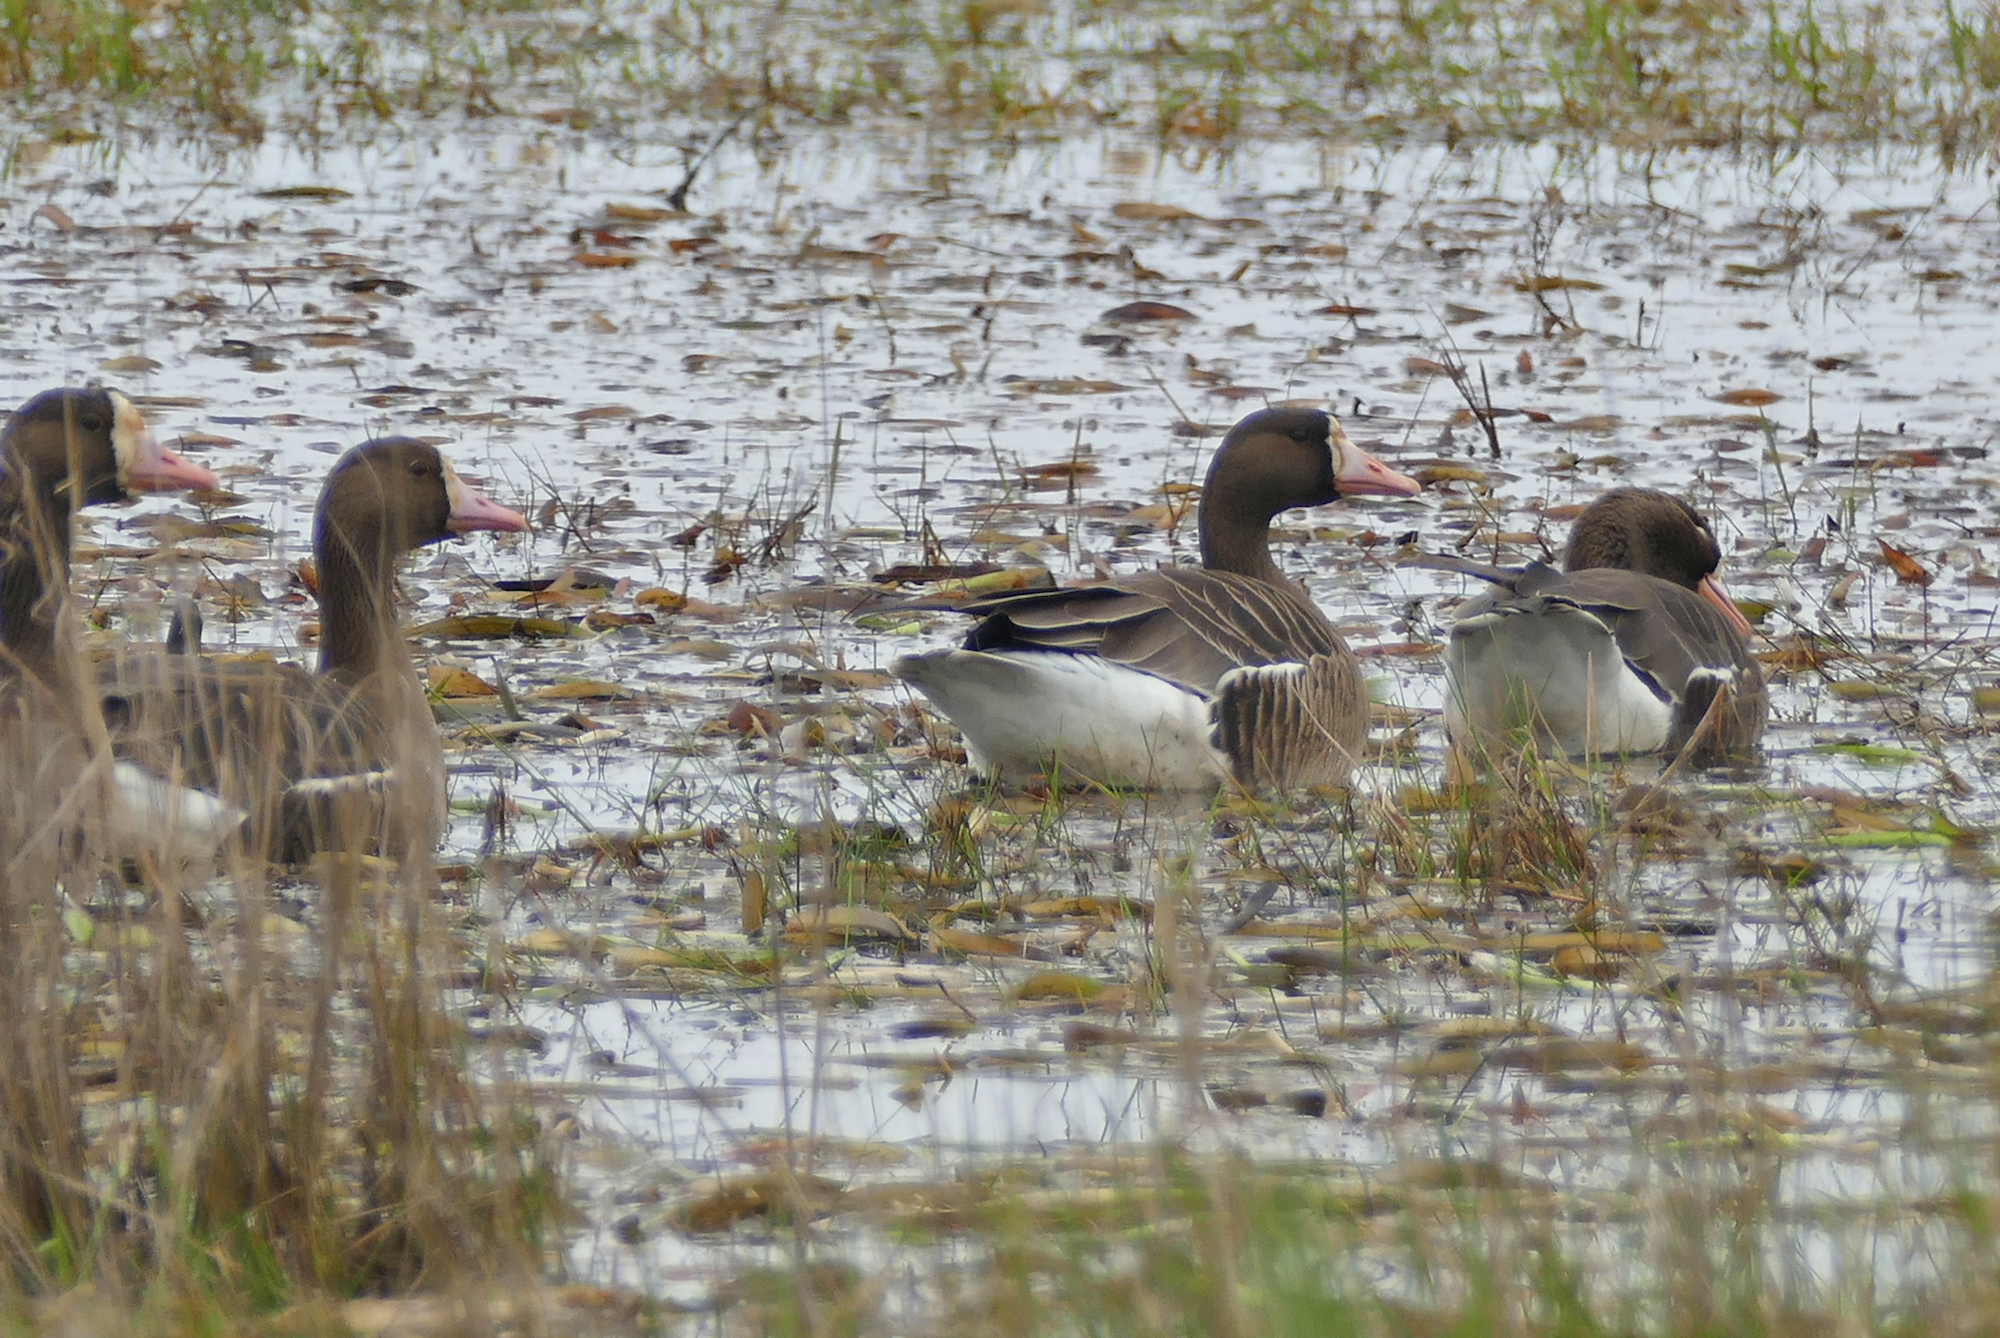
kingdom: Animalia
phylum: Chordata
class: Aves
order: Anseriformes
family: Anatidae
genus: Anser
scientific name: Anser albifrons
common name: Greater white-fronted goose
